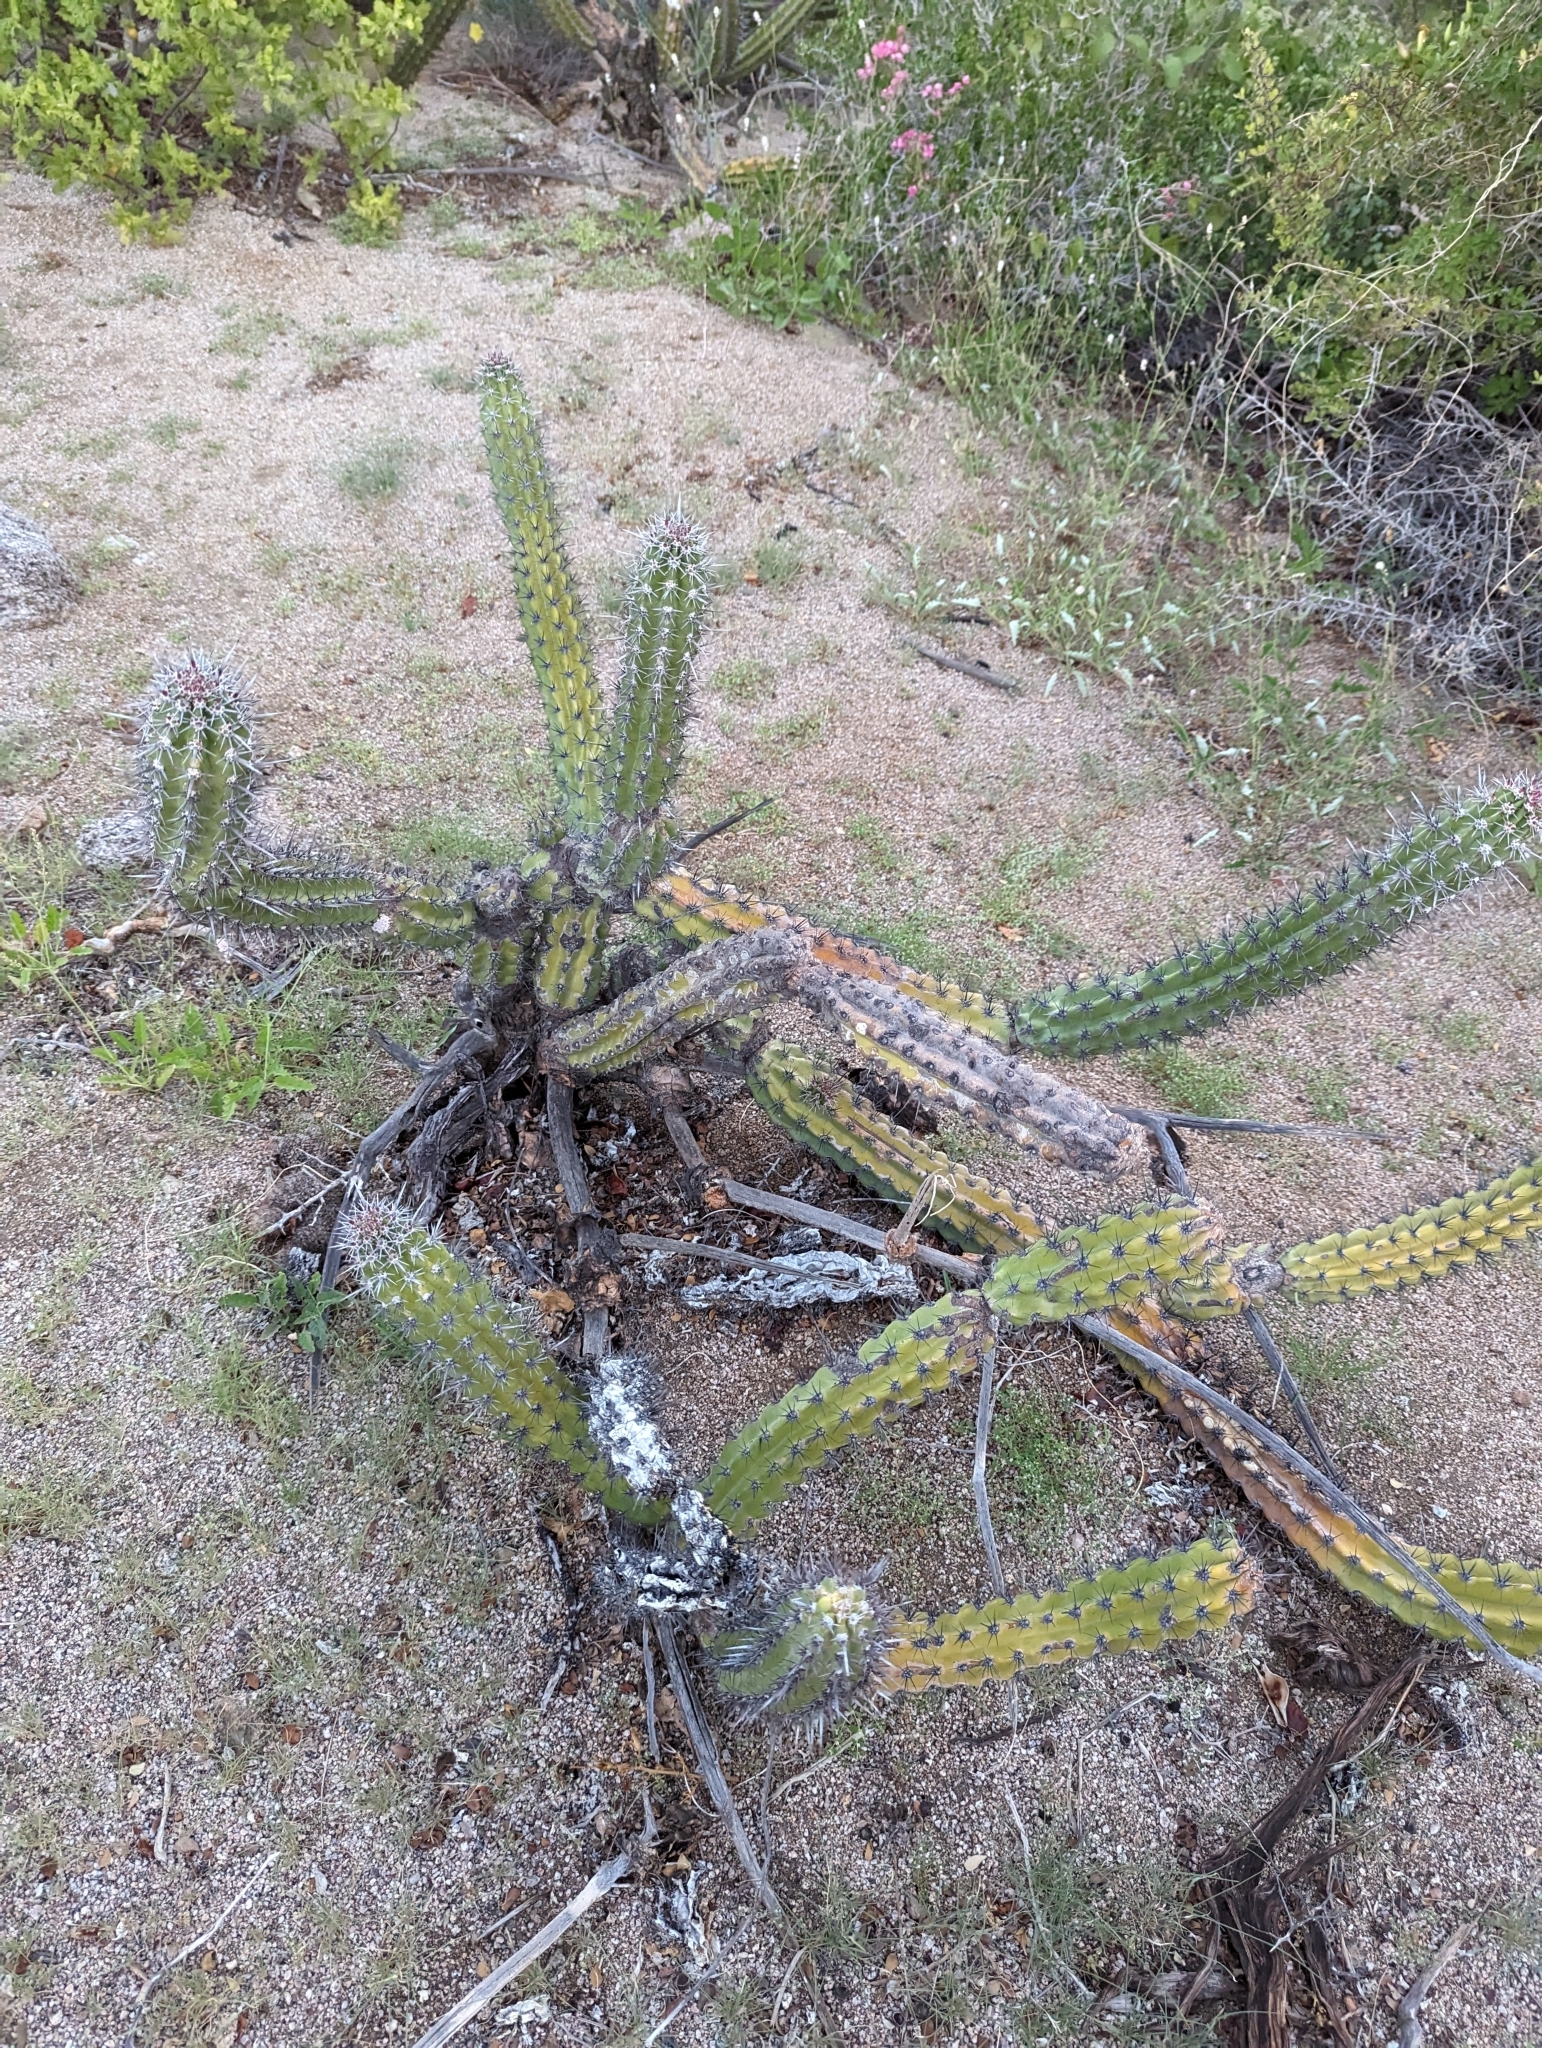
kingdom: Plantae
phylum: Tracheophyta
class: Magnoliopsida
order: Caryophyllales
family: Cactaceae
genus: Stenocereus
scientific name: Stenocereus gummosus
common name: Dagger cactus
